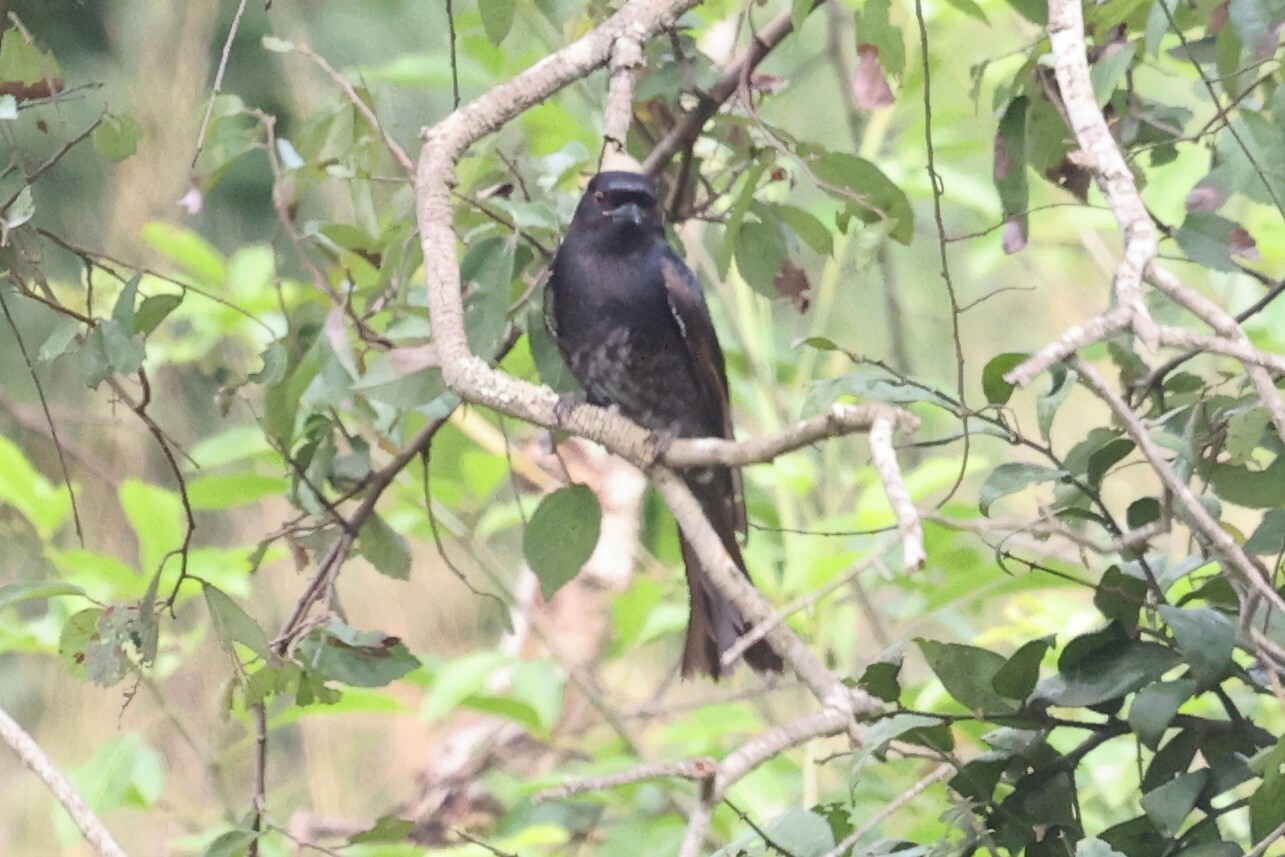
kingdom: Animalia
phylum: Chordata
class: Aves
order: Passeriformes
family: Dicruridae
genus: Dicrurus
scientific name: Dicrurus adsimilis
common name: Fork-tailed drongo
